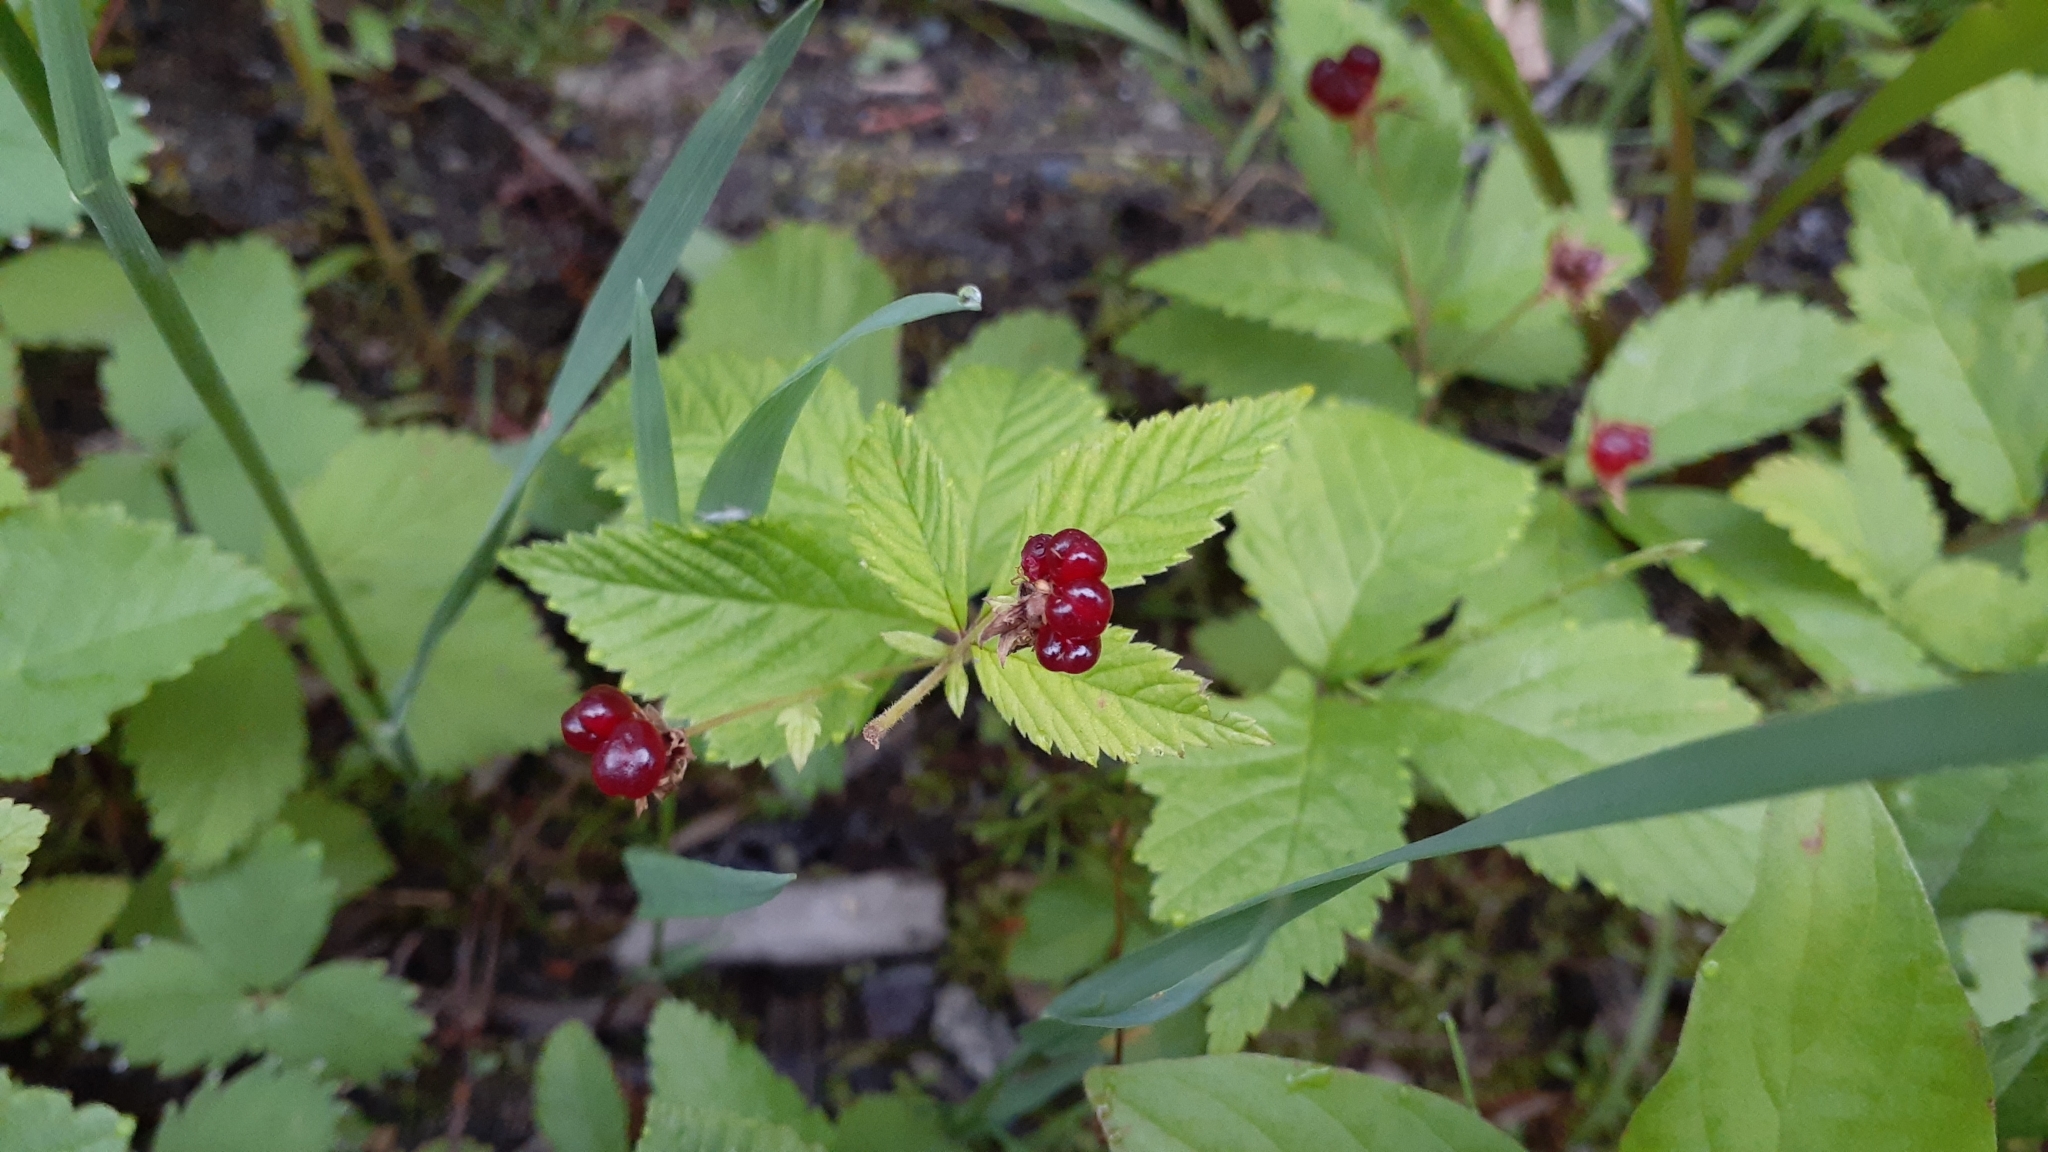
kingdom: Plantae
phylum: Tracheophyta
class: Magnoliopsida
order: Rosales
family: Rosaceae
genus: Rubus
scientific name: Rubus pubescens
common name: Dwarf raspberry
